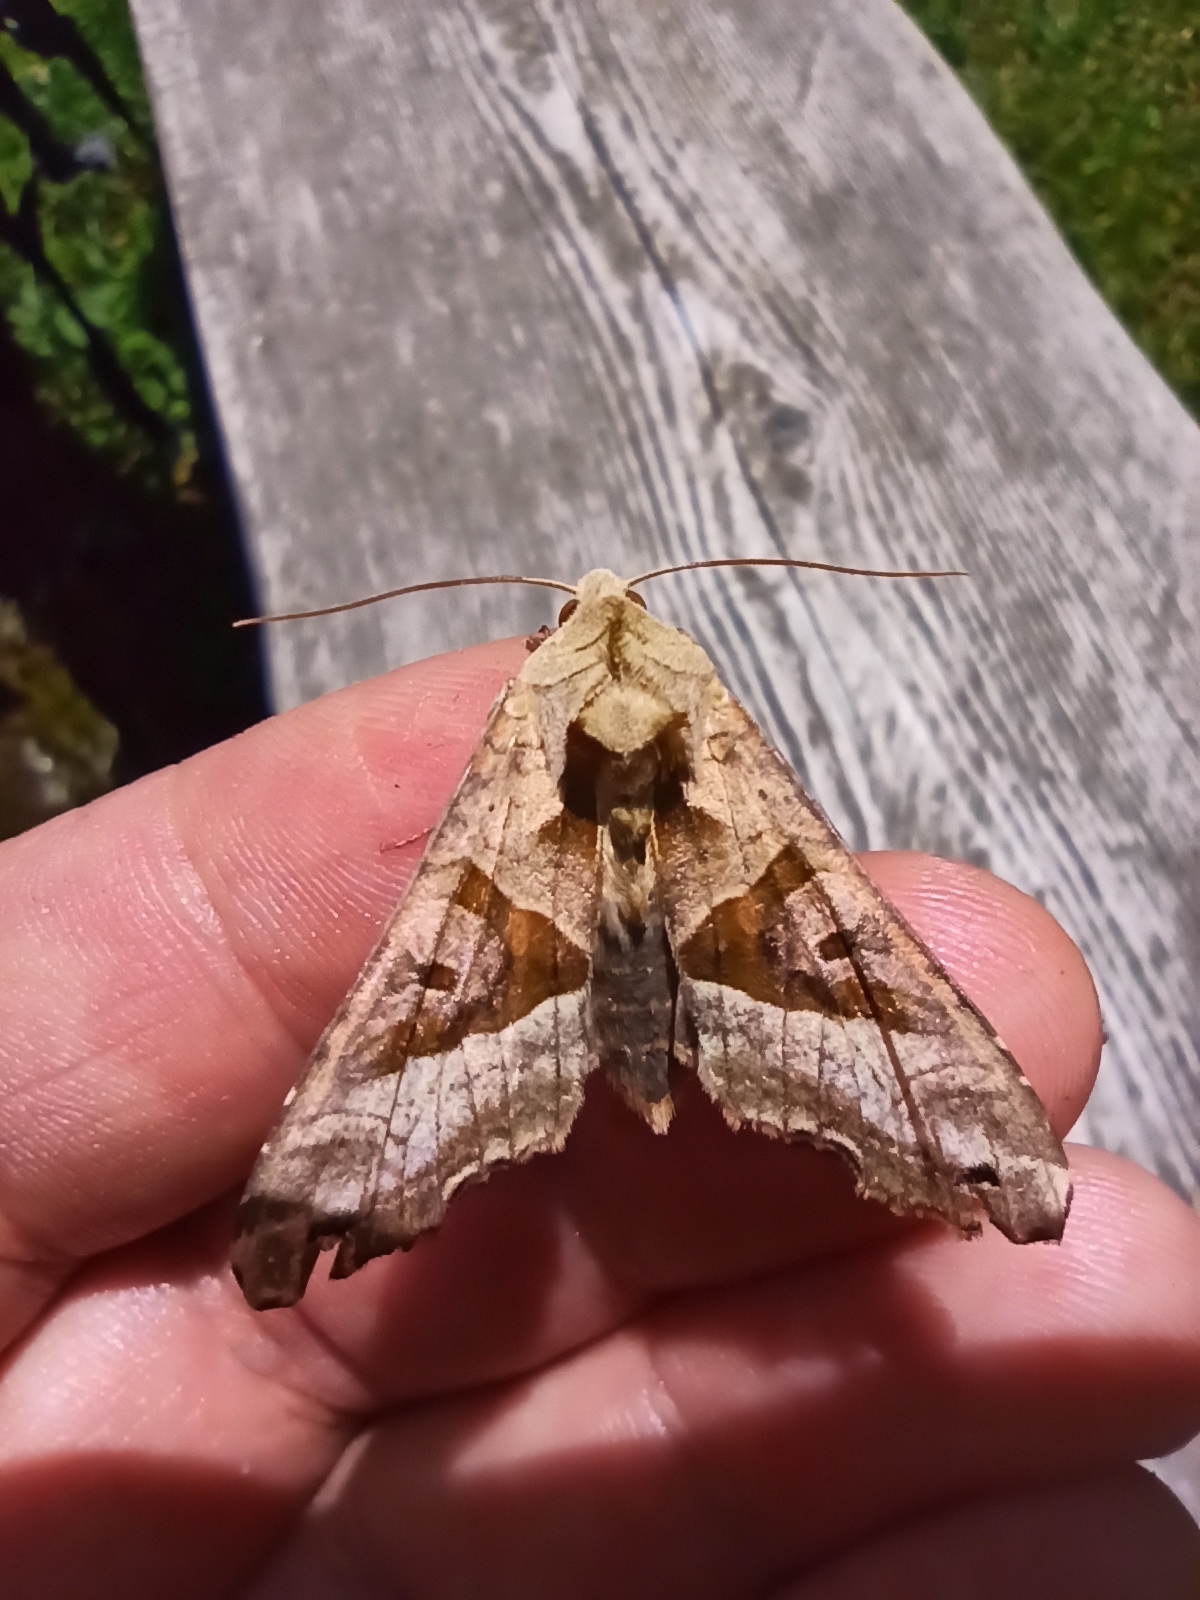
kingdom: Animalia
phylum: Arthropoda
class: Insecta
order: Lepidoptera
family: Noctuidae
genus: Phlogophora
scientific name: Phlogophora meticulosa
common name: Angle shades
